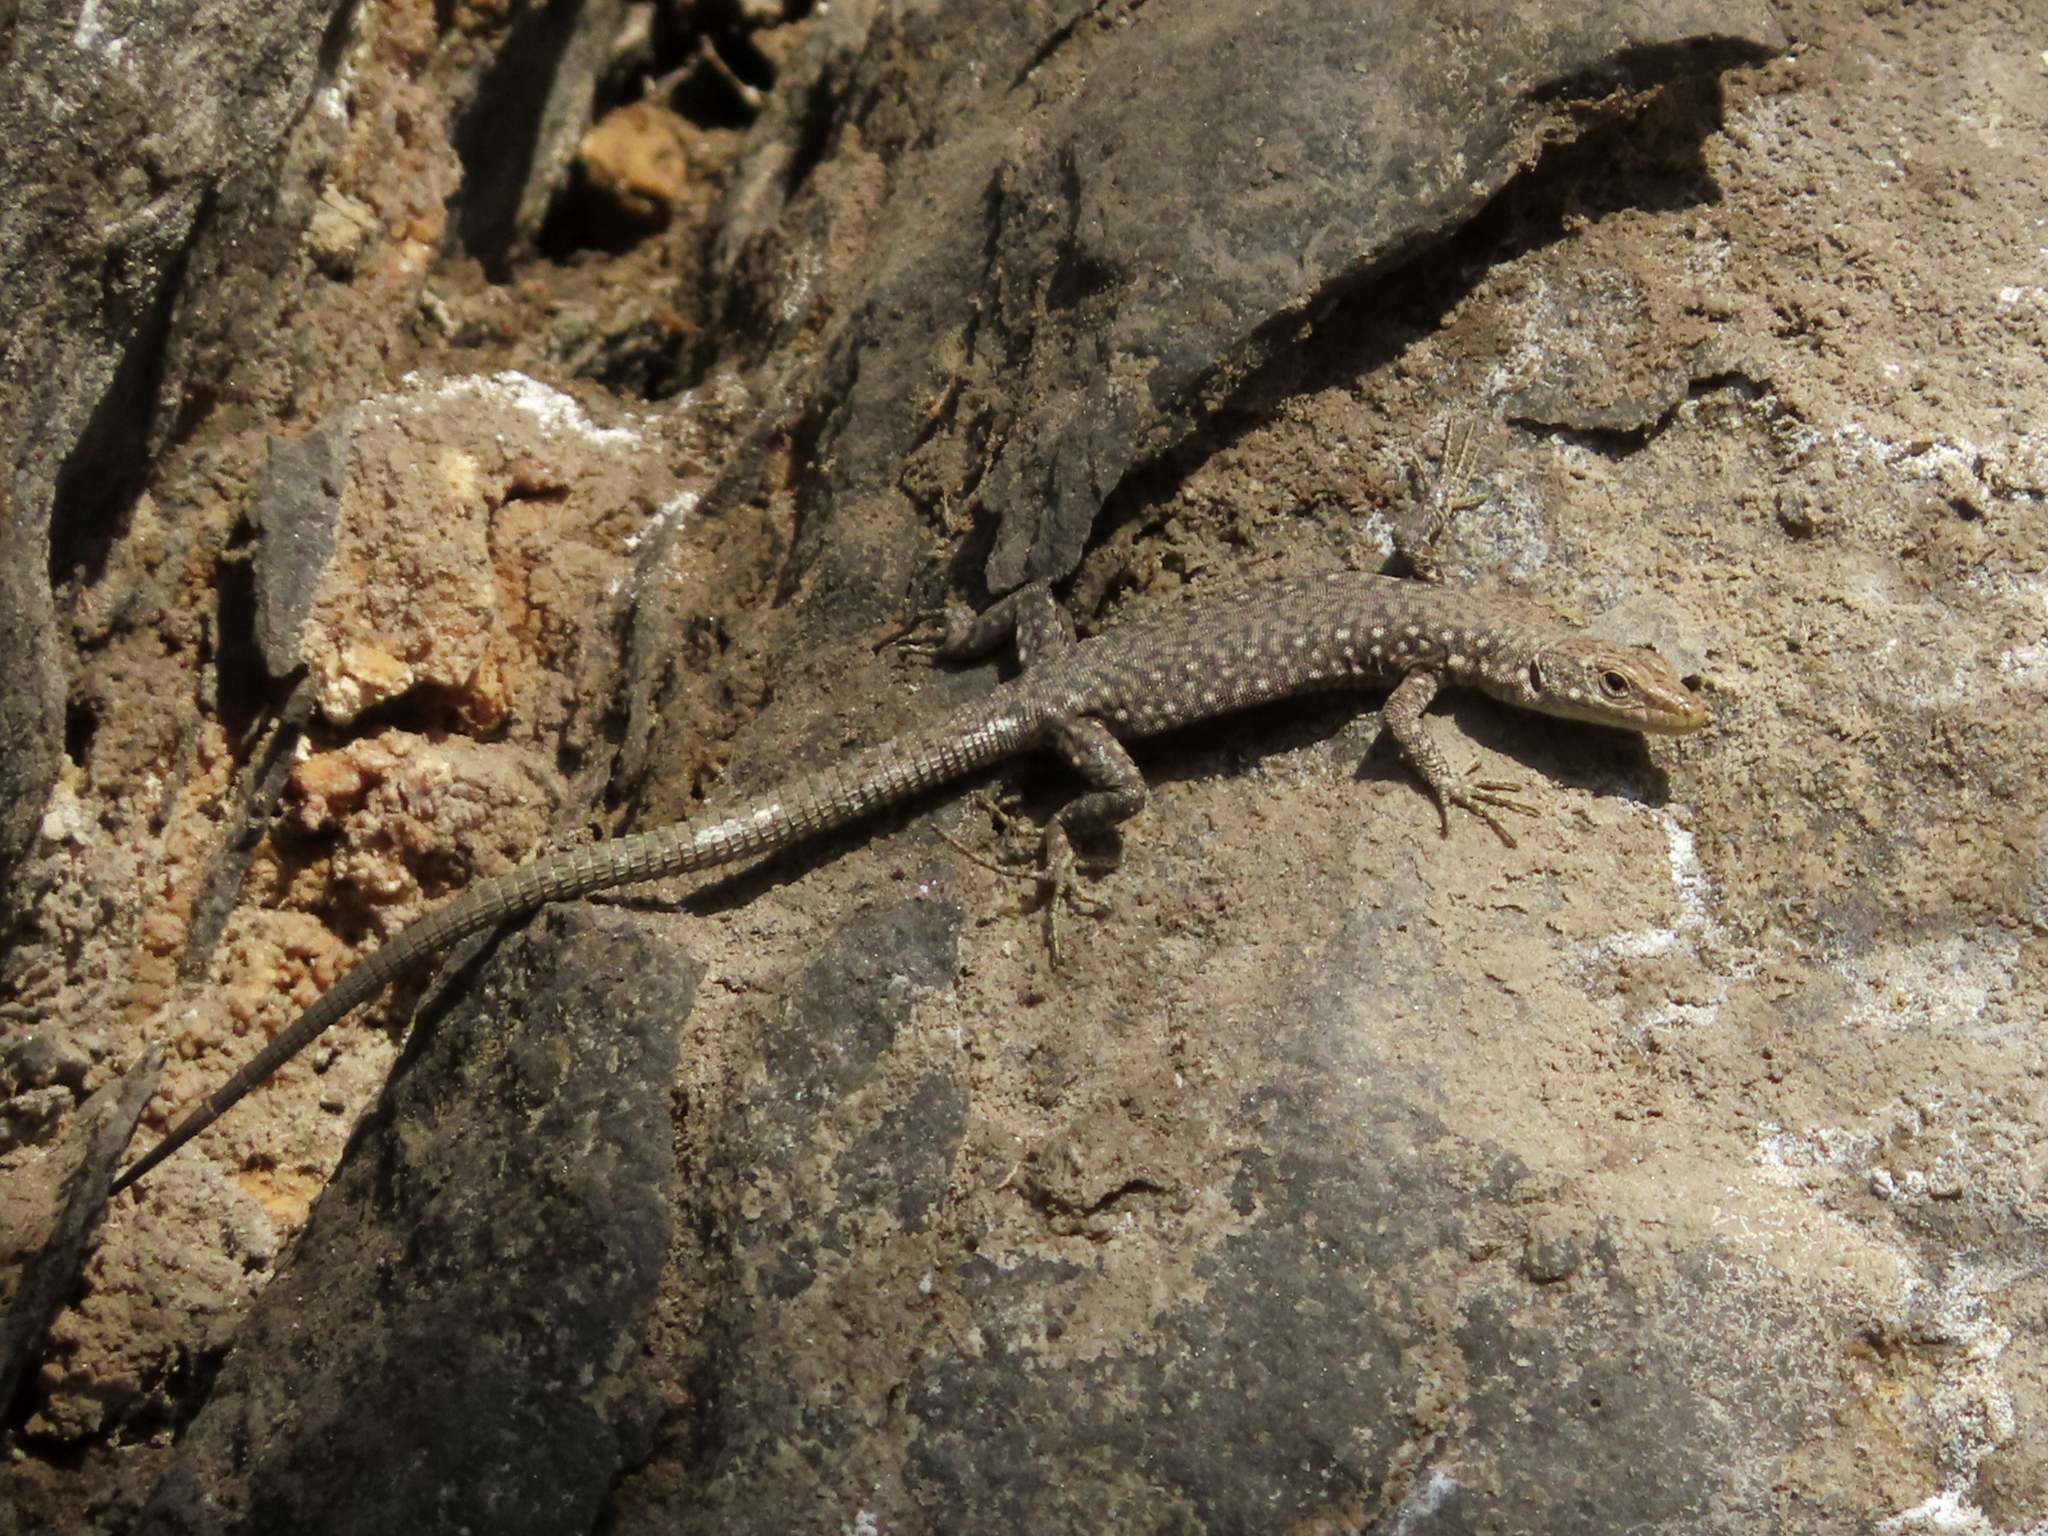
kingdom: Animalia
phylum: Chordata
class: Squamata
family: Lacertidae
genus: Darevskia
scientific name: Darevskia
